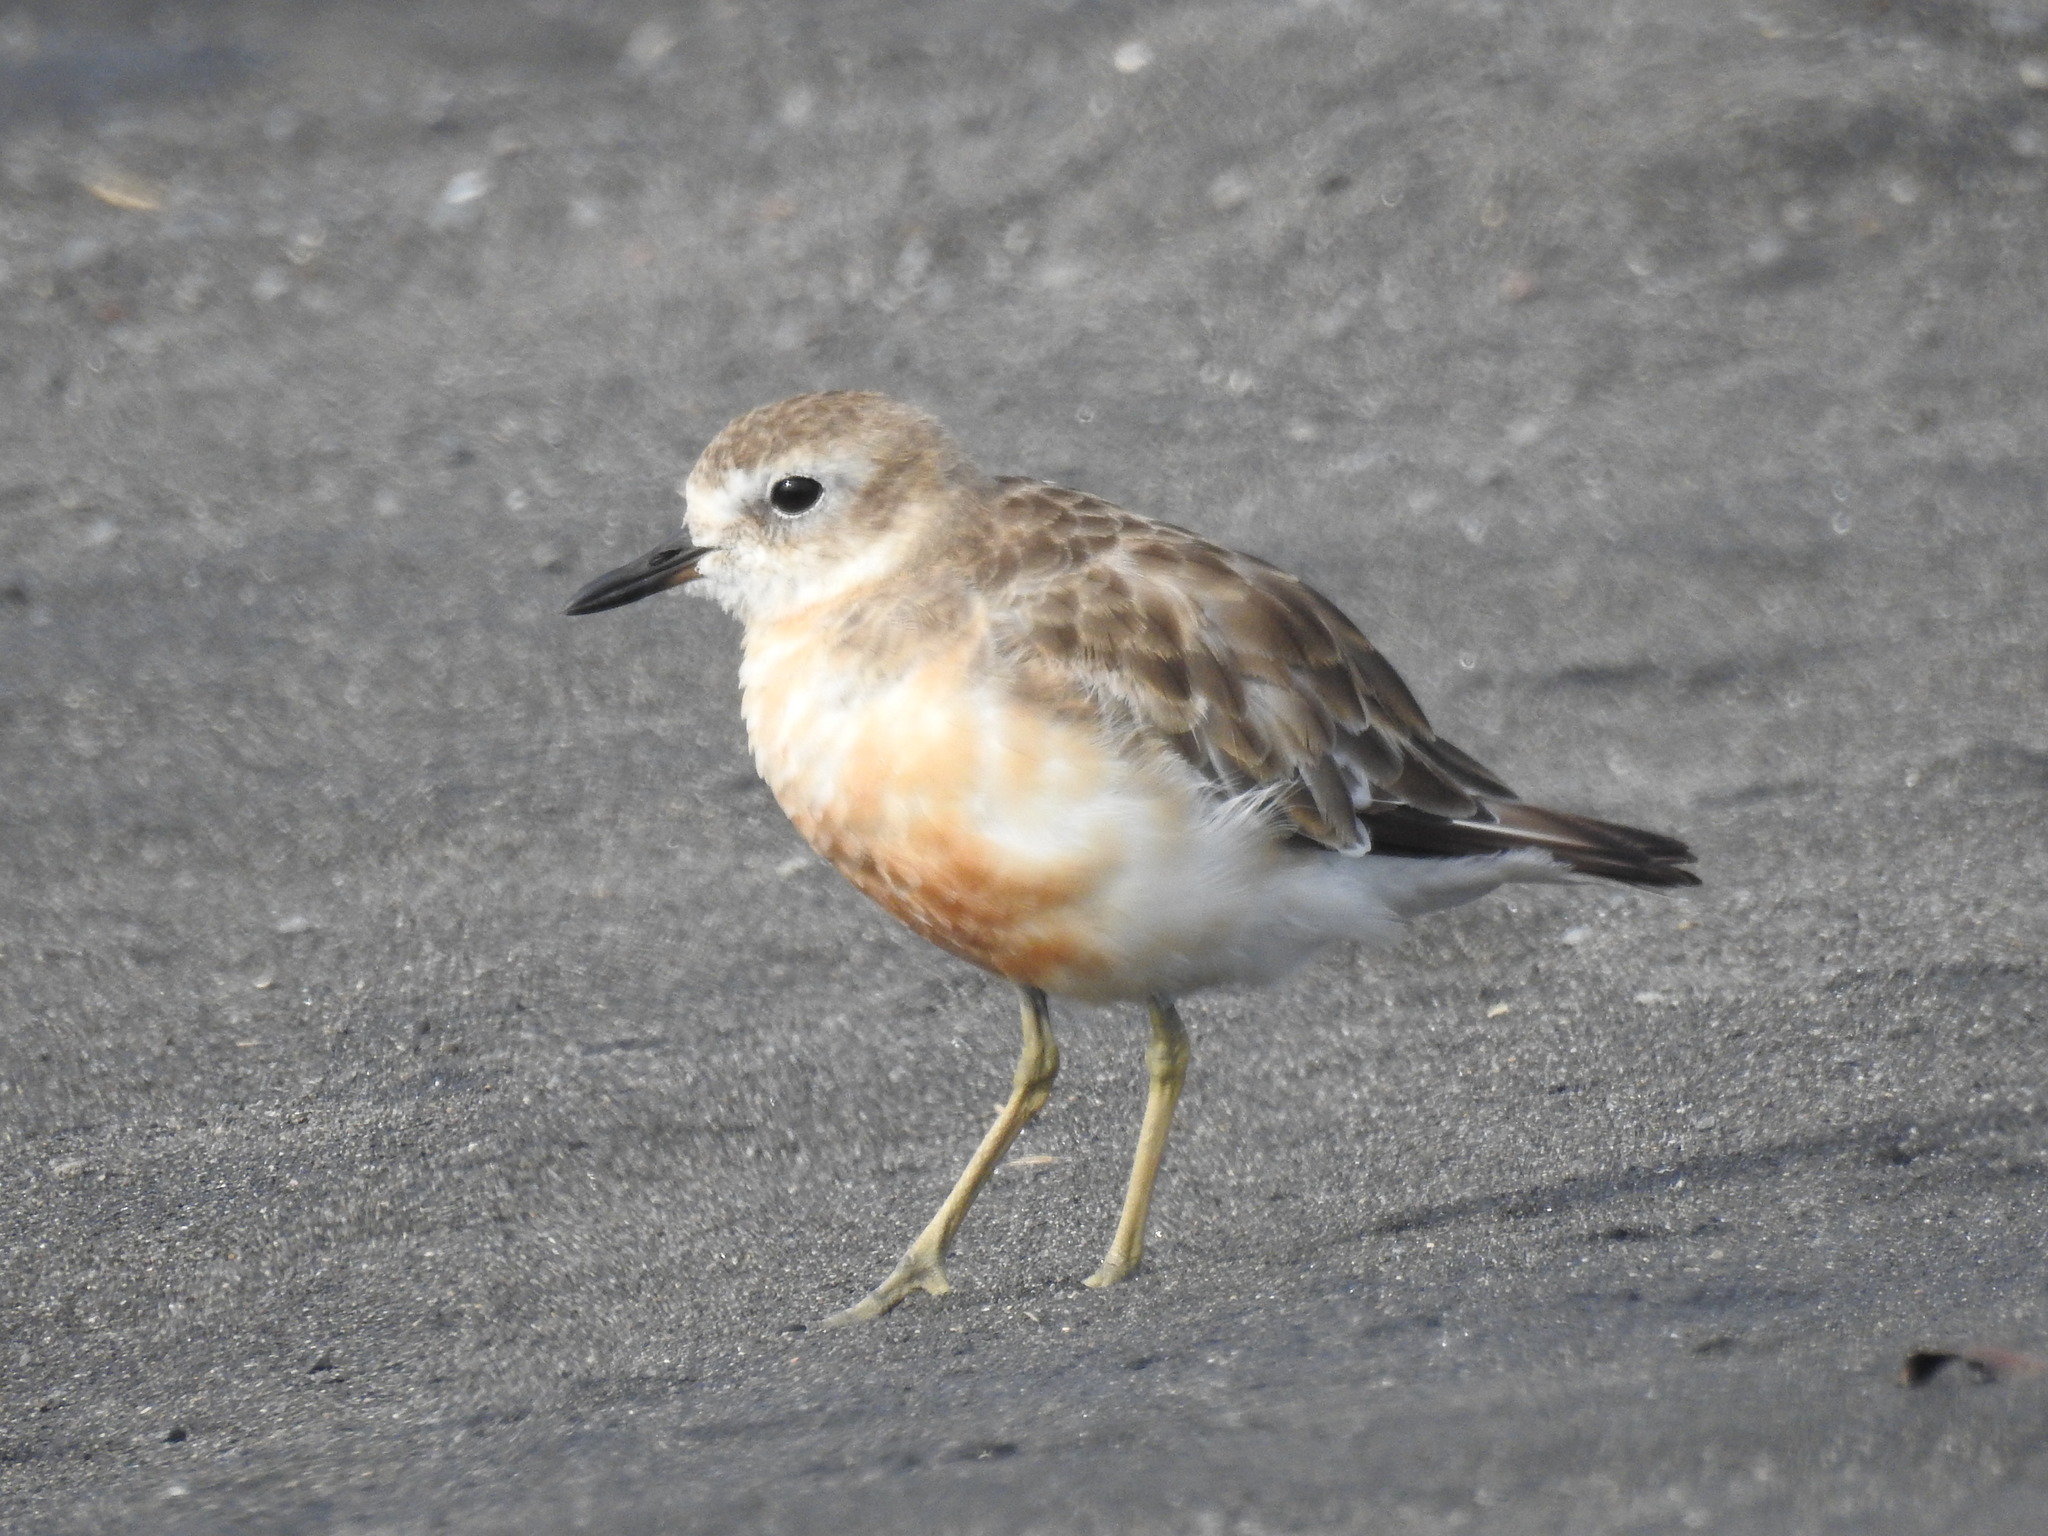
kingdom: Animalia
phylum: Chordata
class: Aves
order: Charadriiformes
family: Charadriidae
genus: Anarhynchus
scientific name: Anarhynchus
